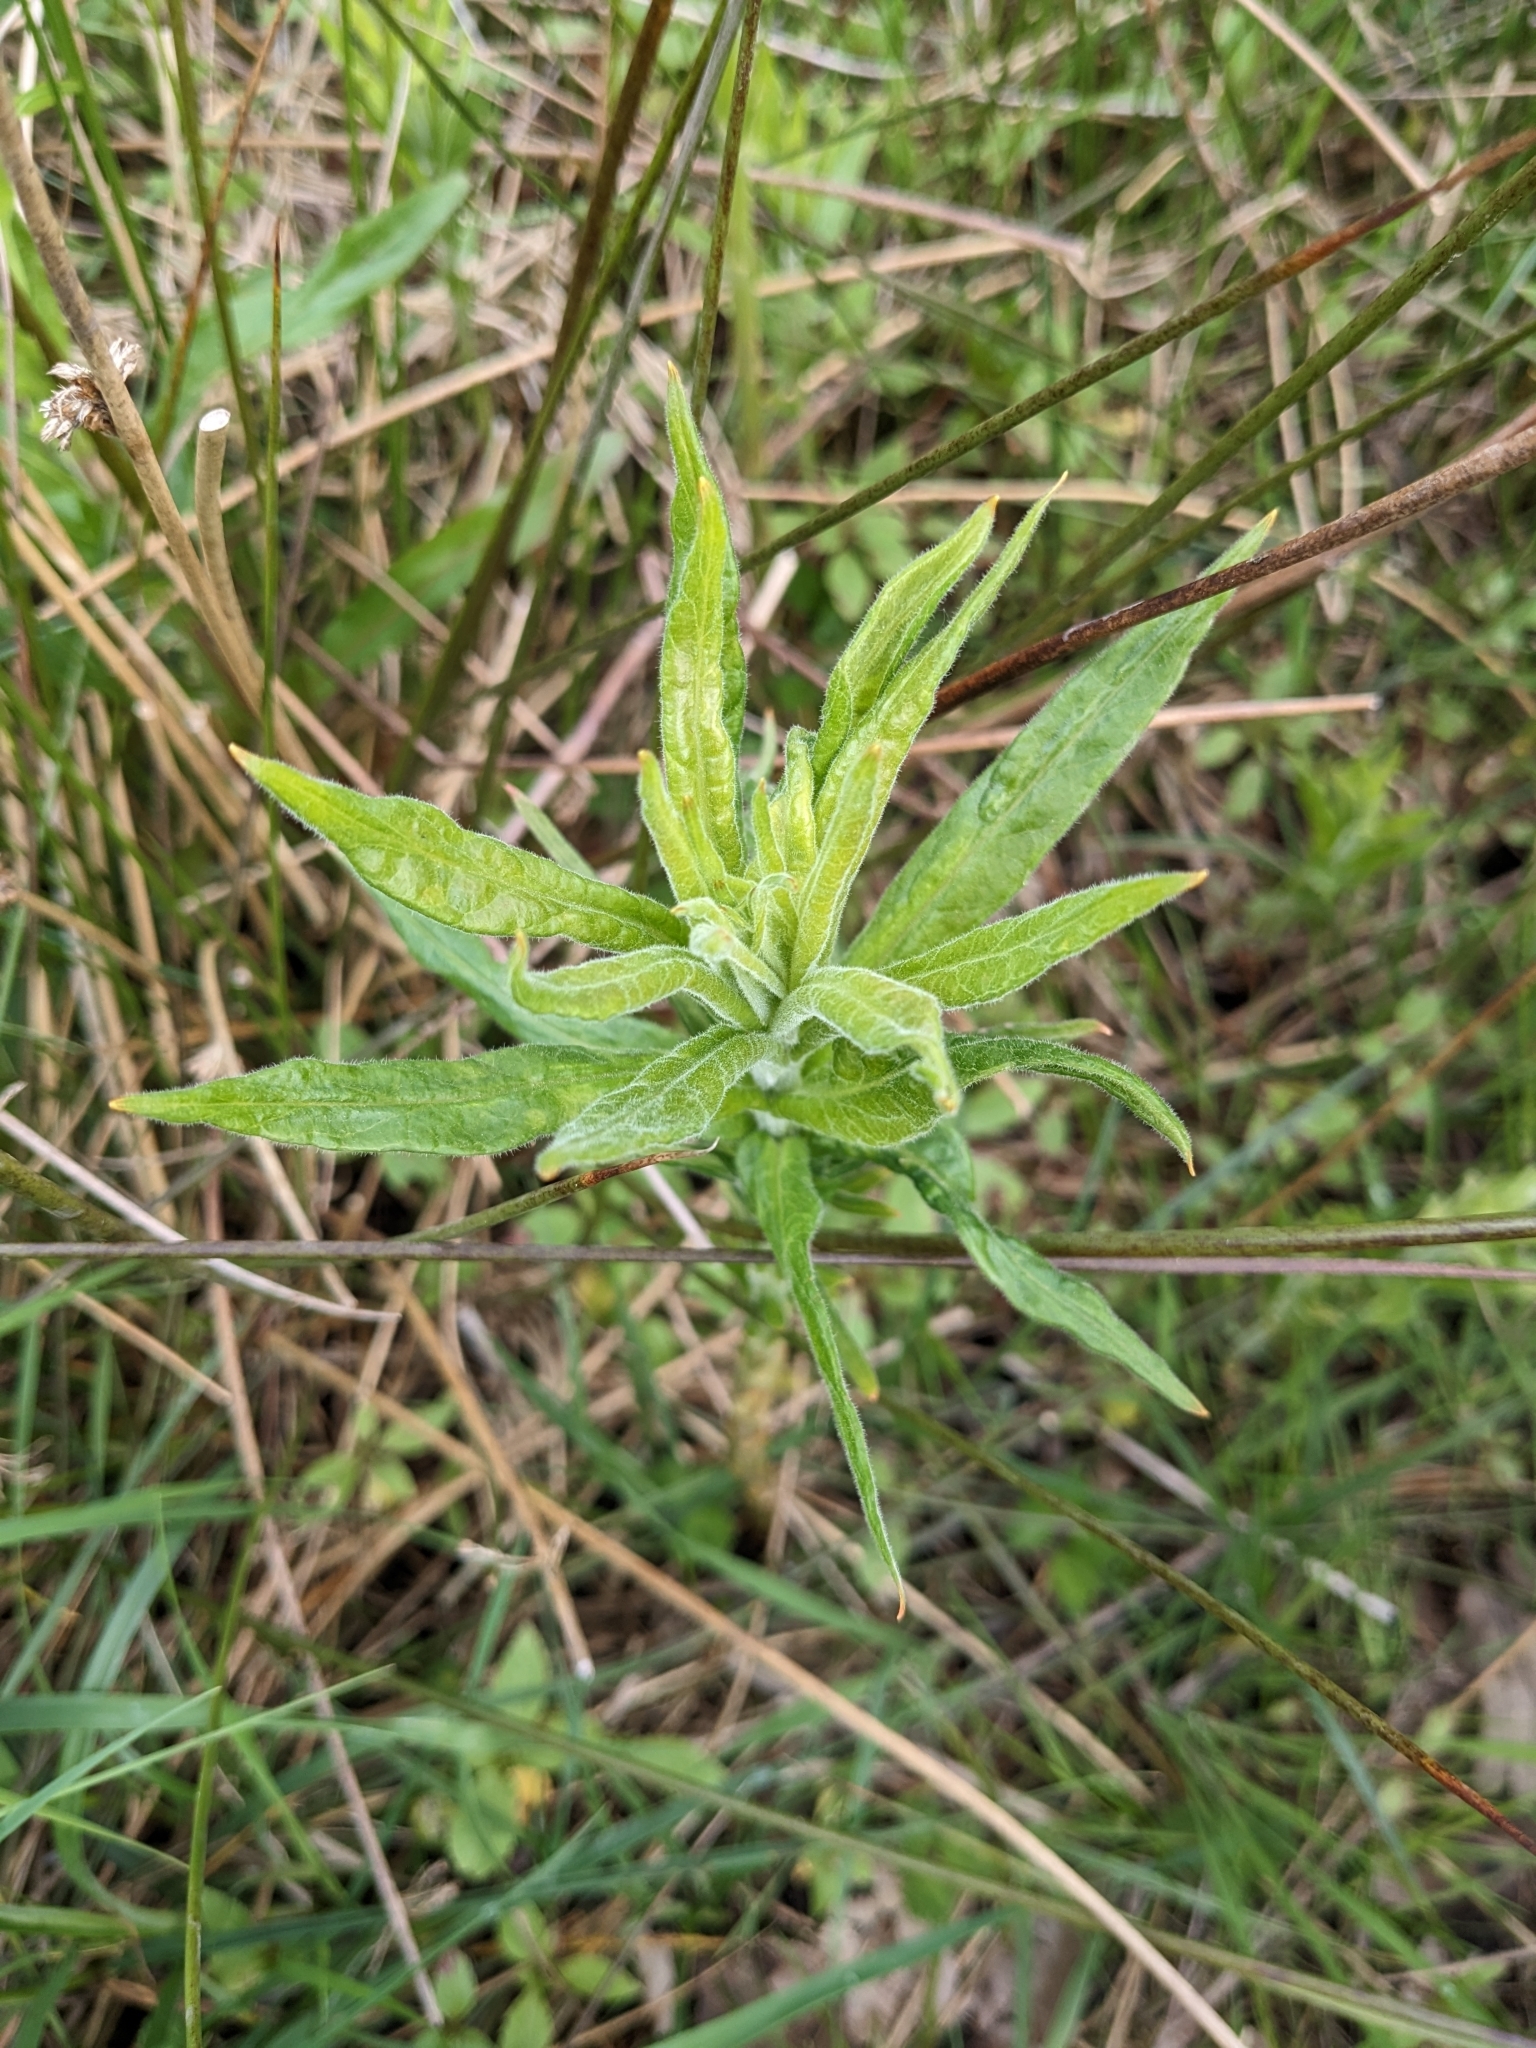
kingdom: Plantae
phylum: Tracheophyta
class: Magnoliopsida
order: Myrtales
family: Onagraceae
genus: Epilobium
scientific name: Epilobium hirsutum
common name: Great willowherb
